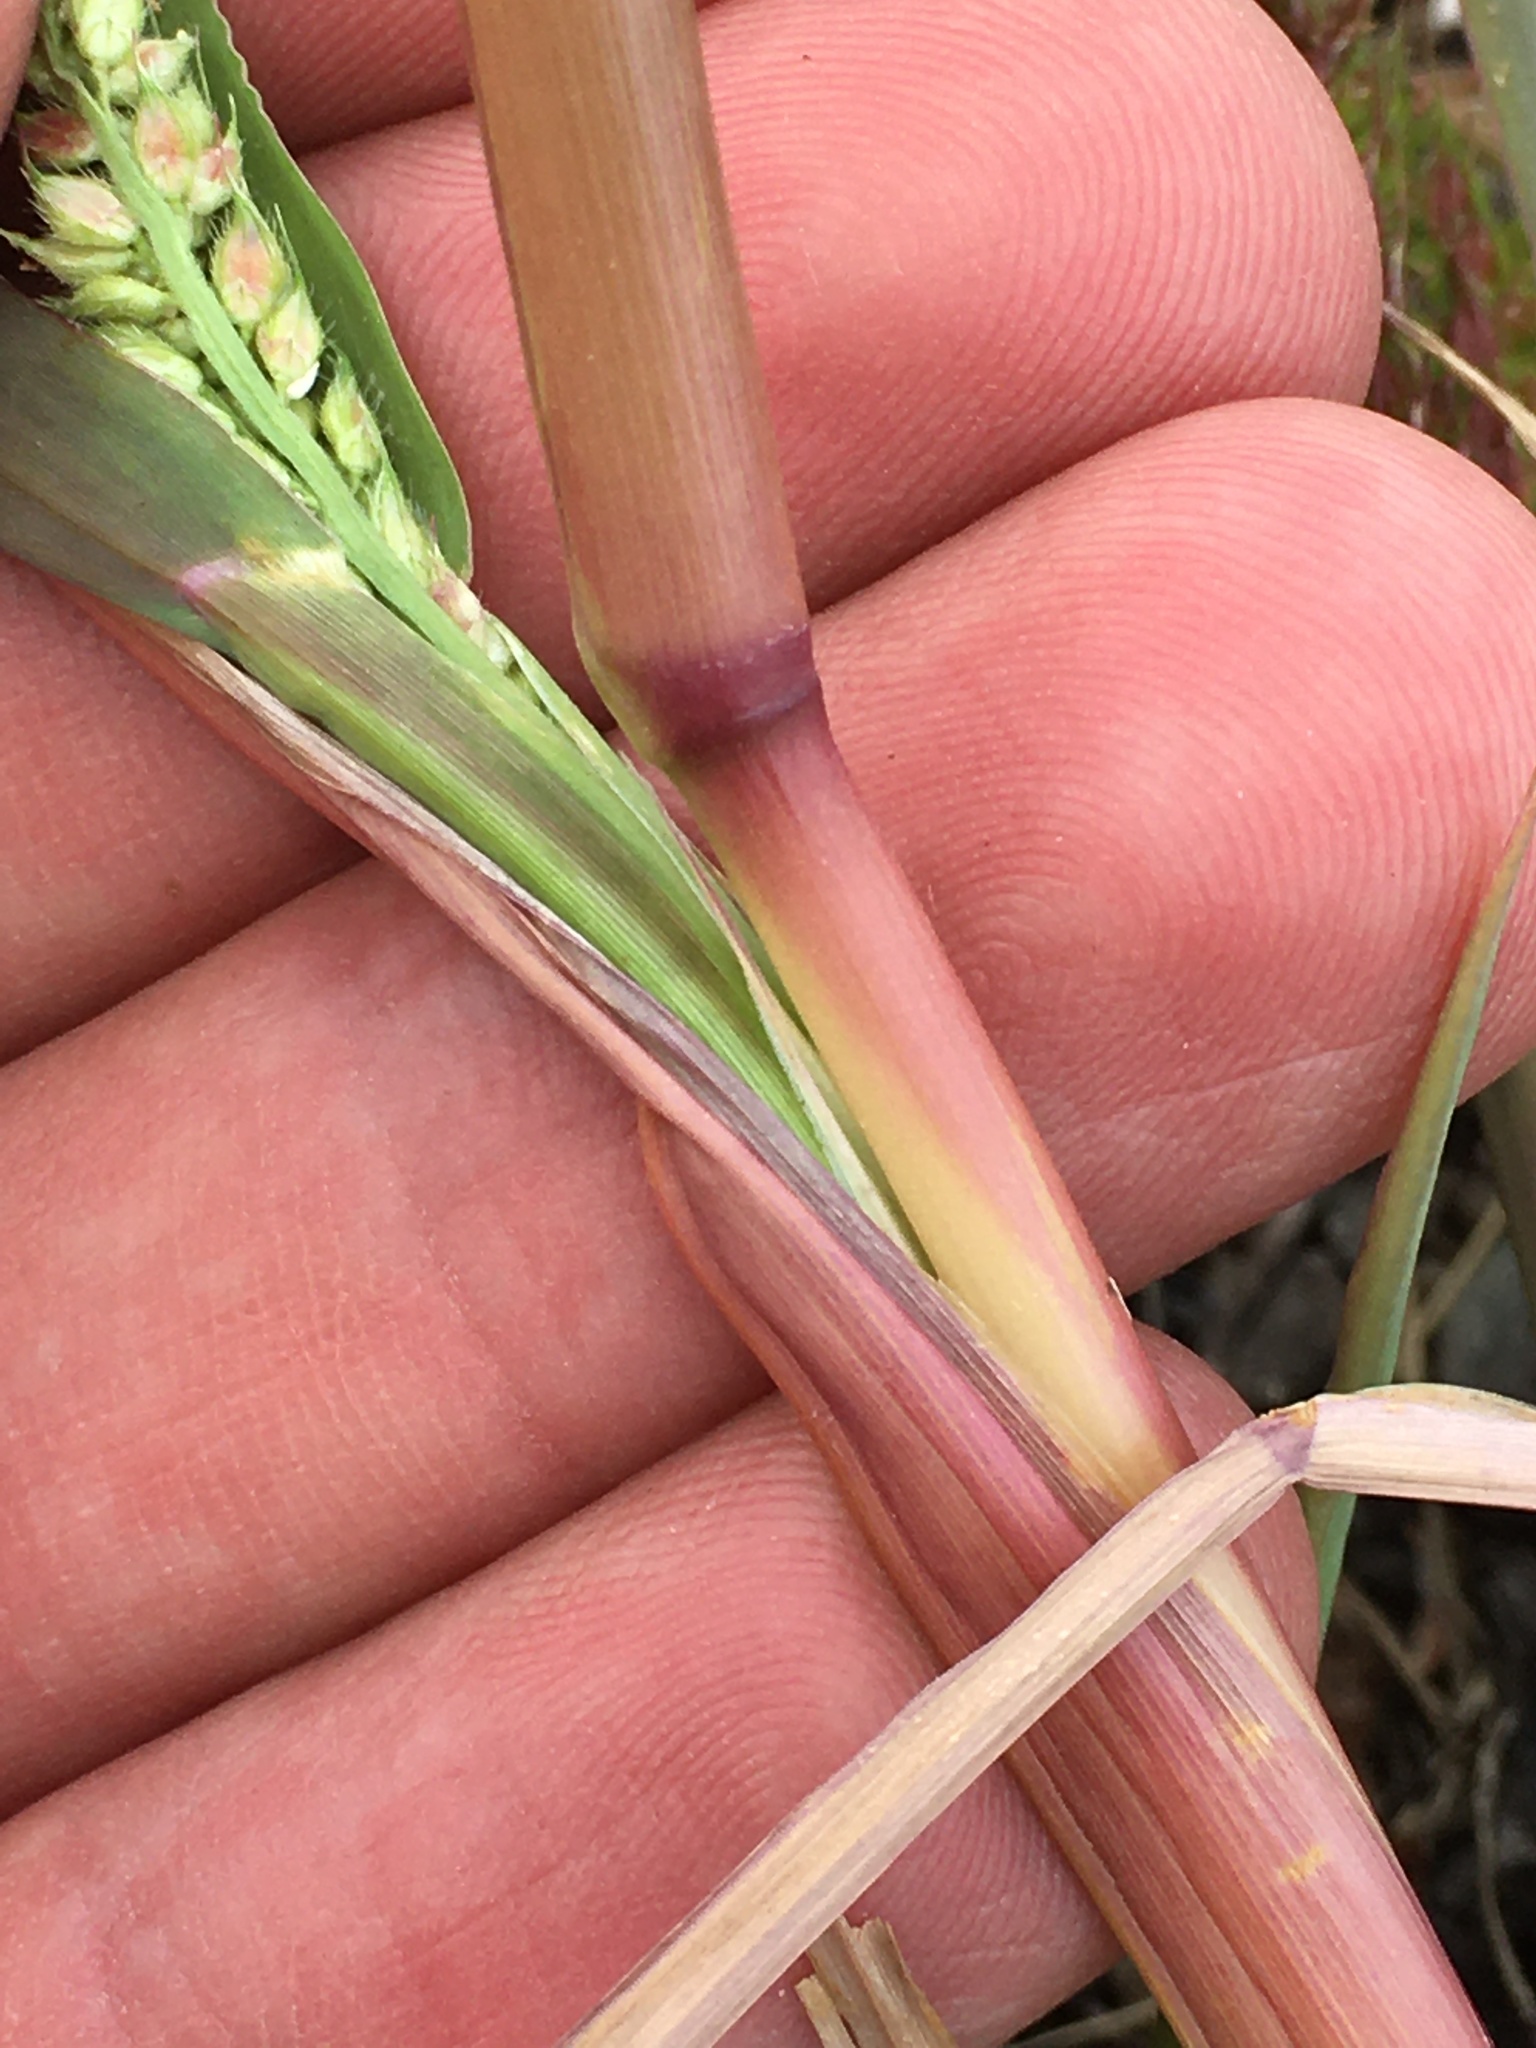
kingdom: Plantae
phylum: Tracheophyta
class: Liliopsida
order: Poales
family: Poaceae
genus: Echinochloa
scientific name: Echinochloa crus-galli
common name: Cockspur
